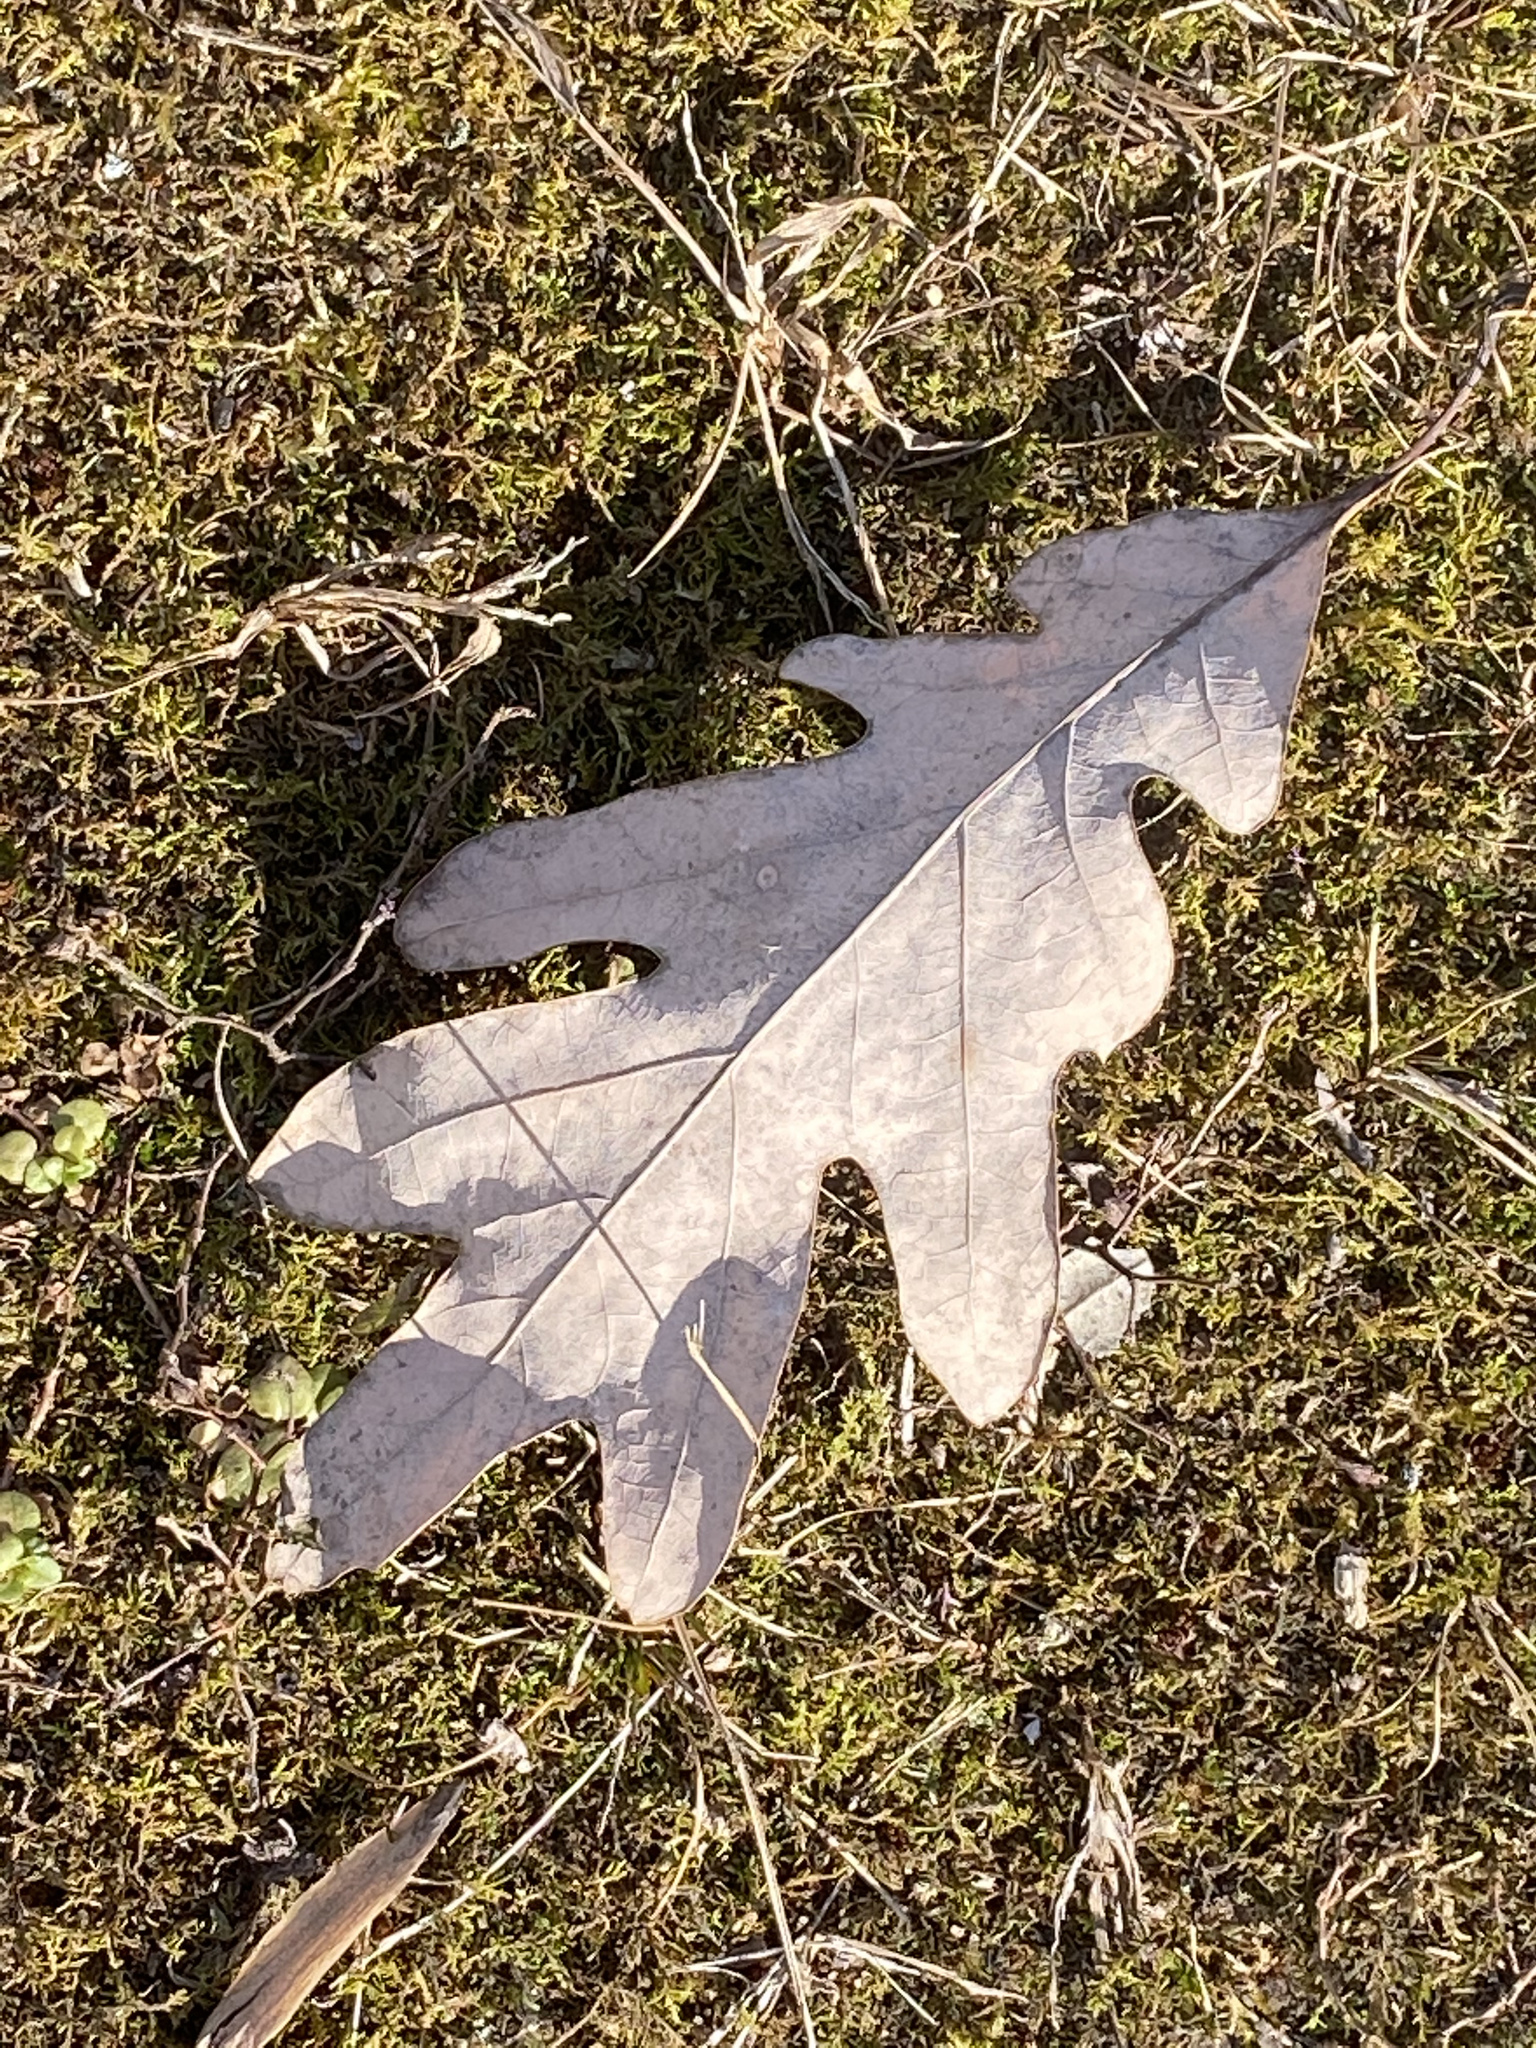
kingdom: Plantae
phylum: Tracheophyta
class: Magnoliopsida
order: Fagales
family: Fagaceae
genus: Quercus
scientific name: Quercus alba
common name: White oak
